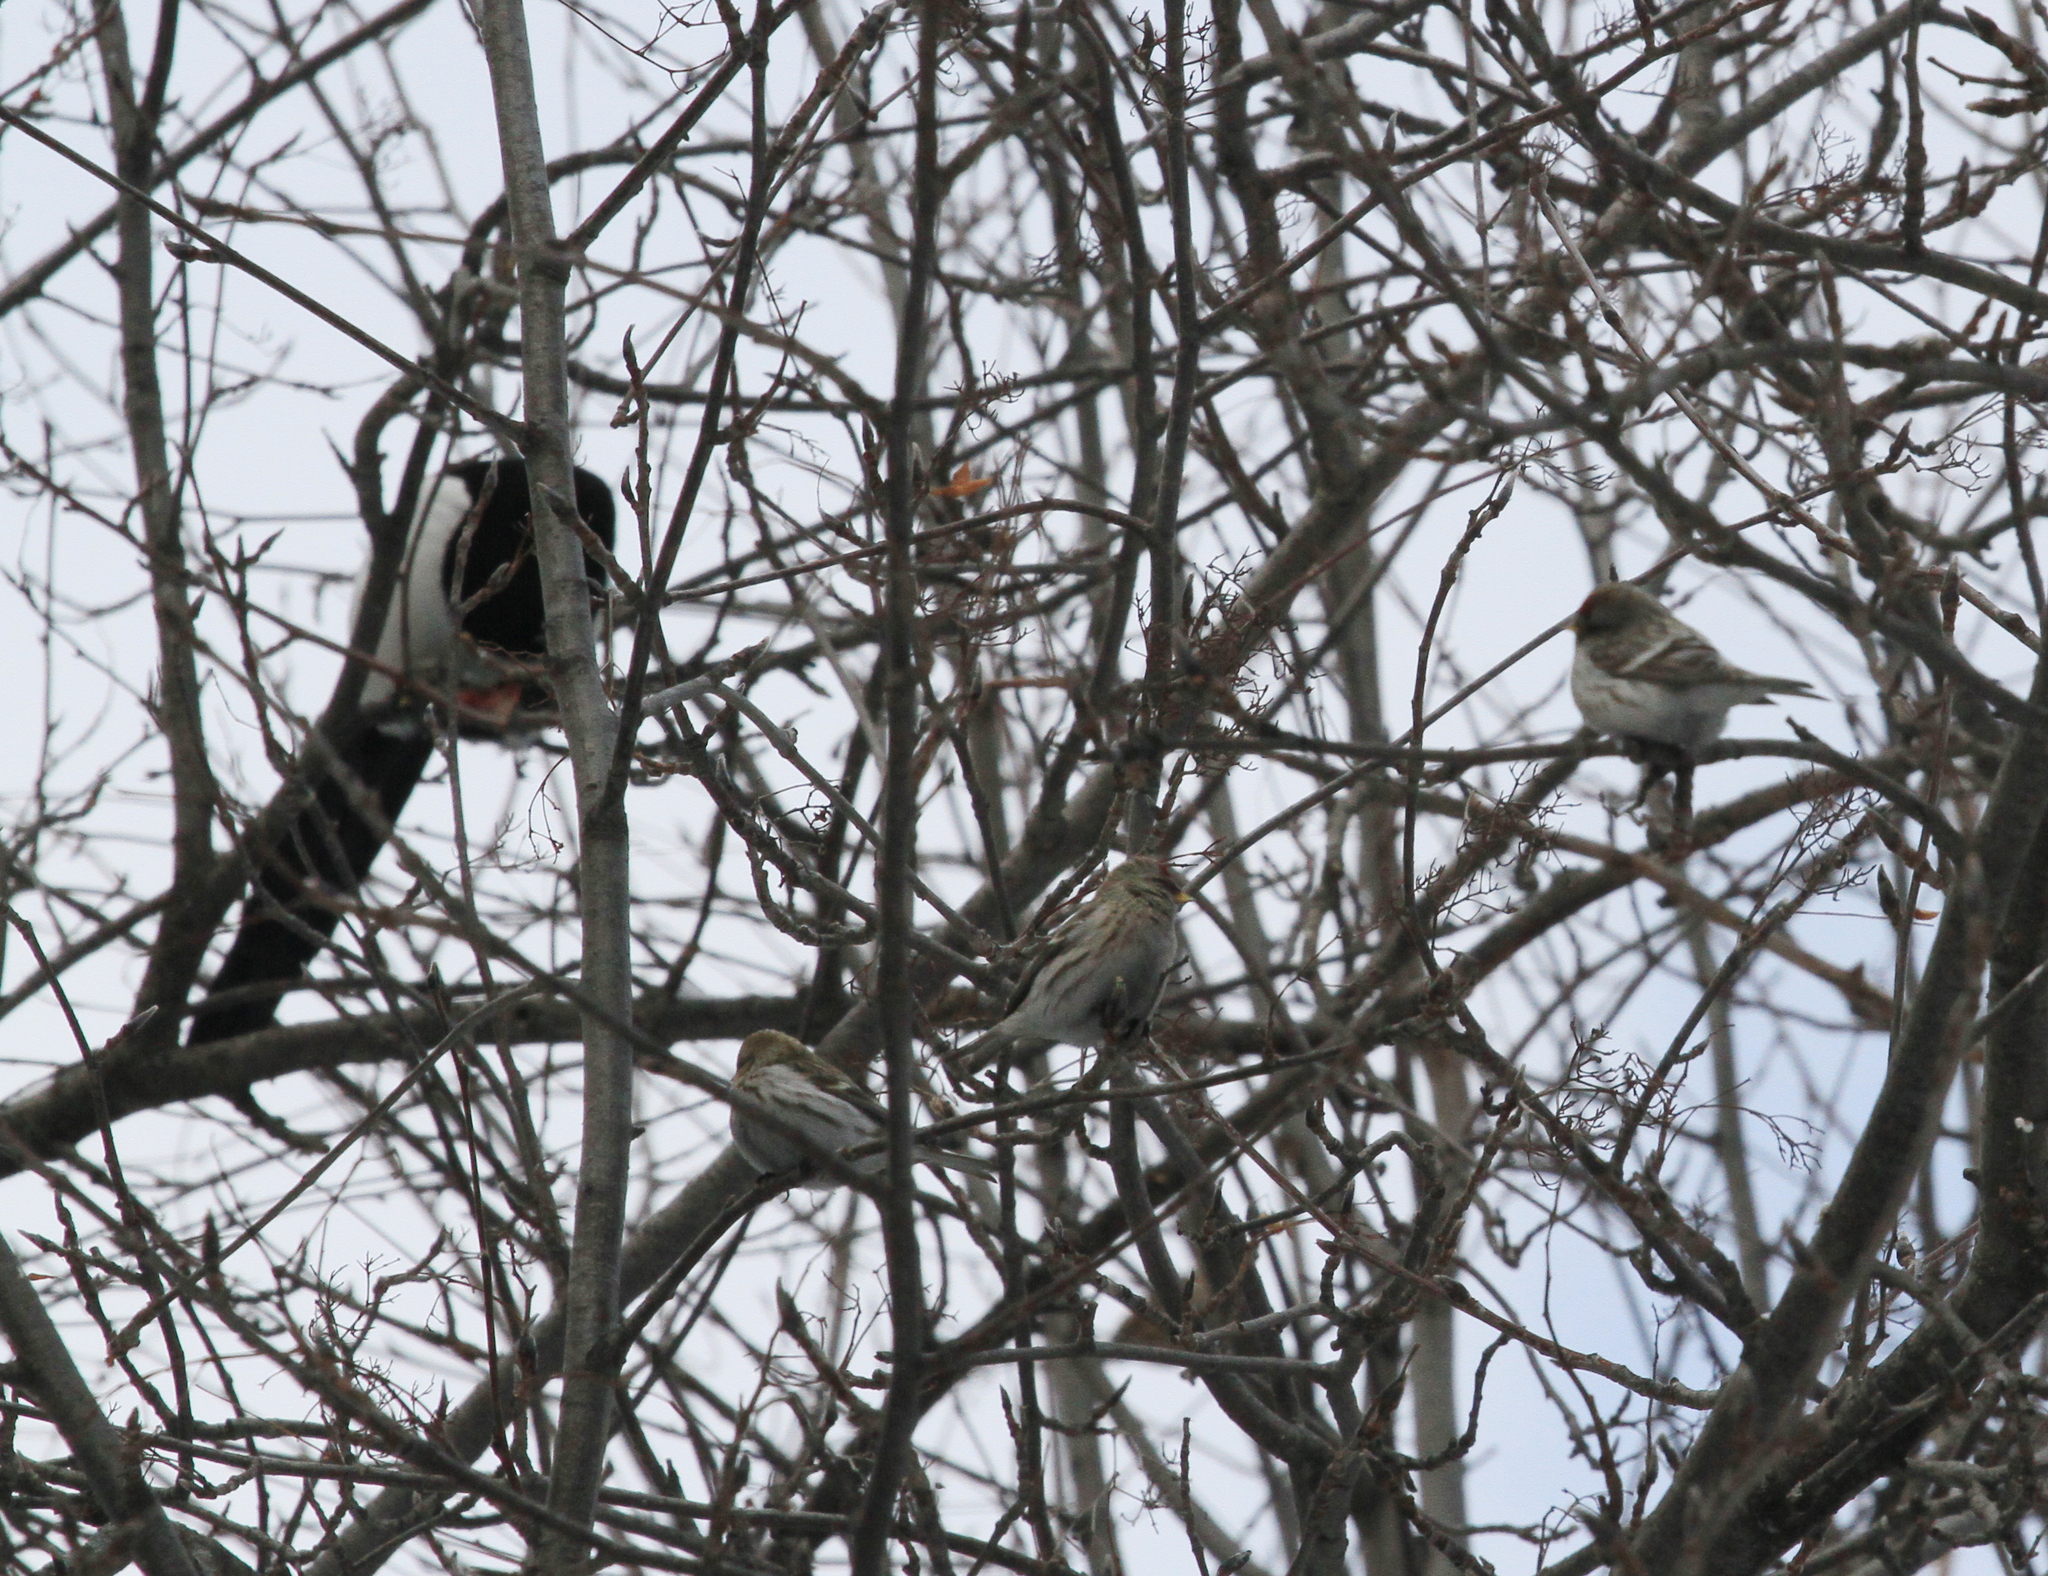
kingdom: Animalia
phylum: Chordata
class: Aves
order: Passeriformes
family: Fringillidae
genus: Acanthis
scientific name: Acanthis flammea
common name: Common redpoll
